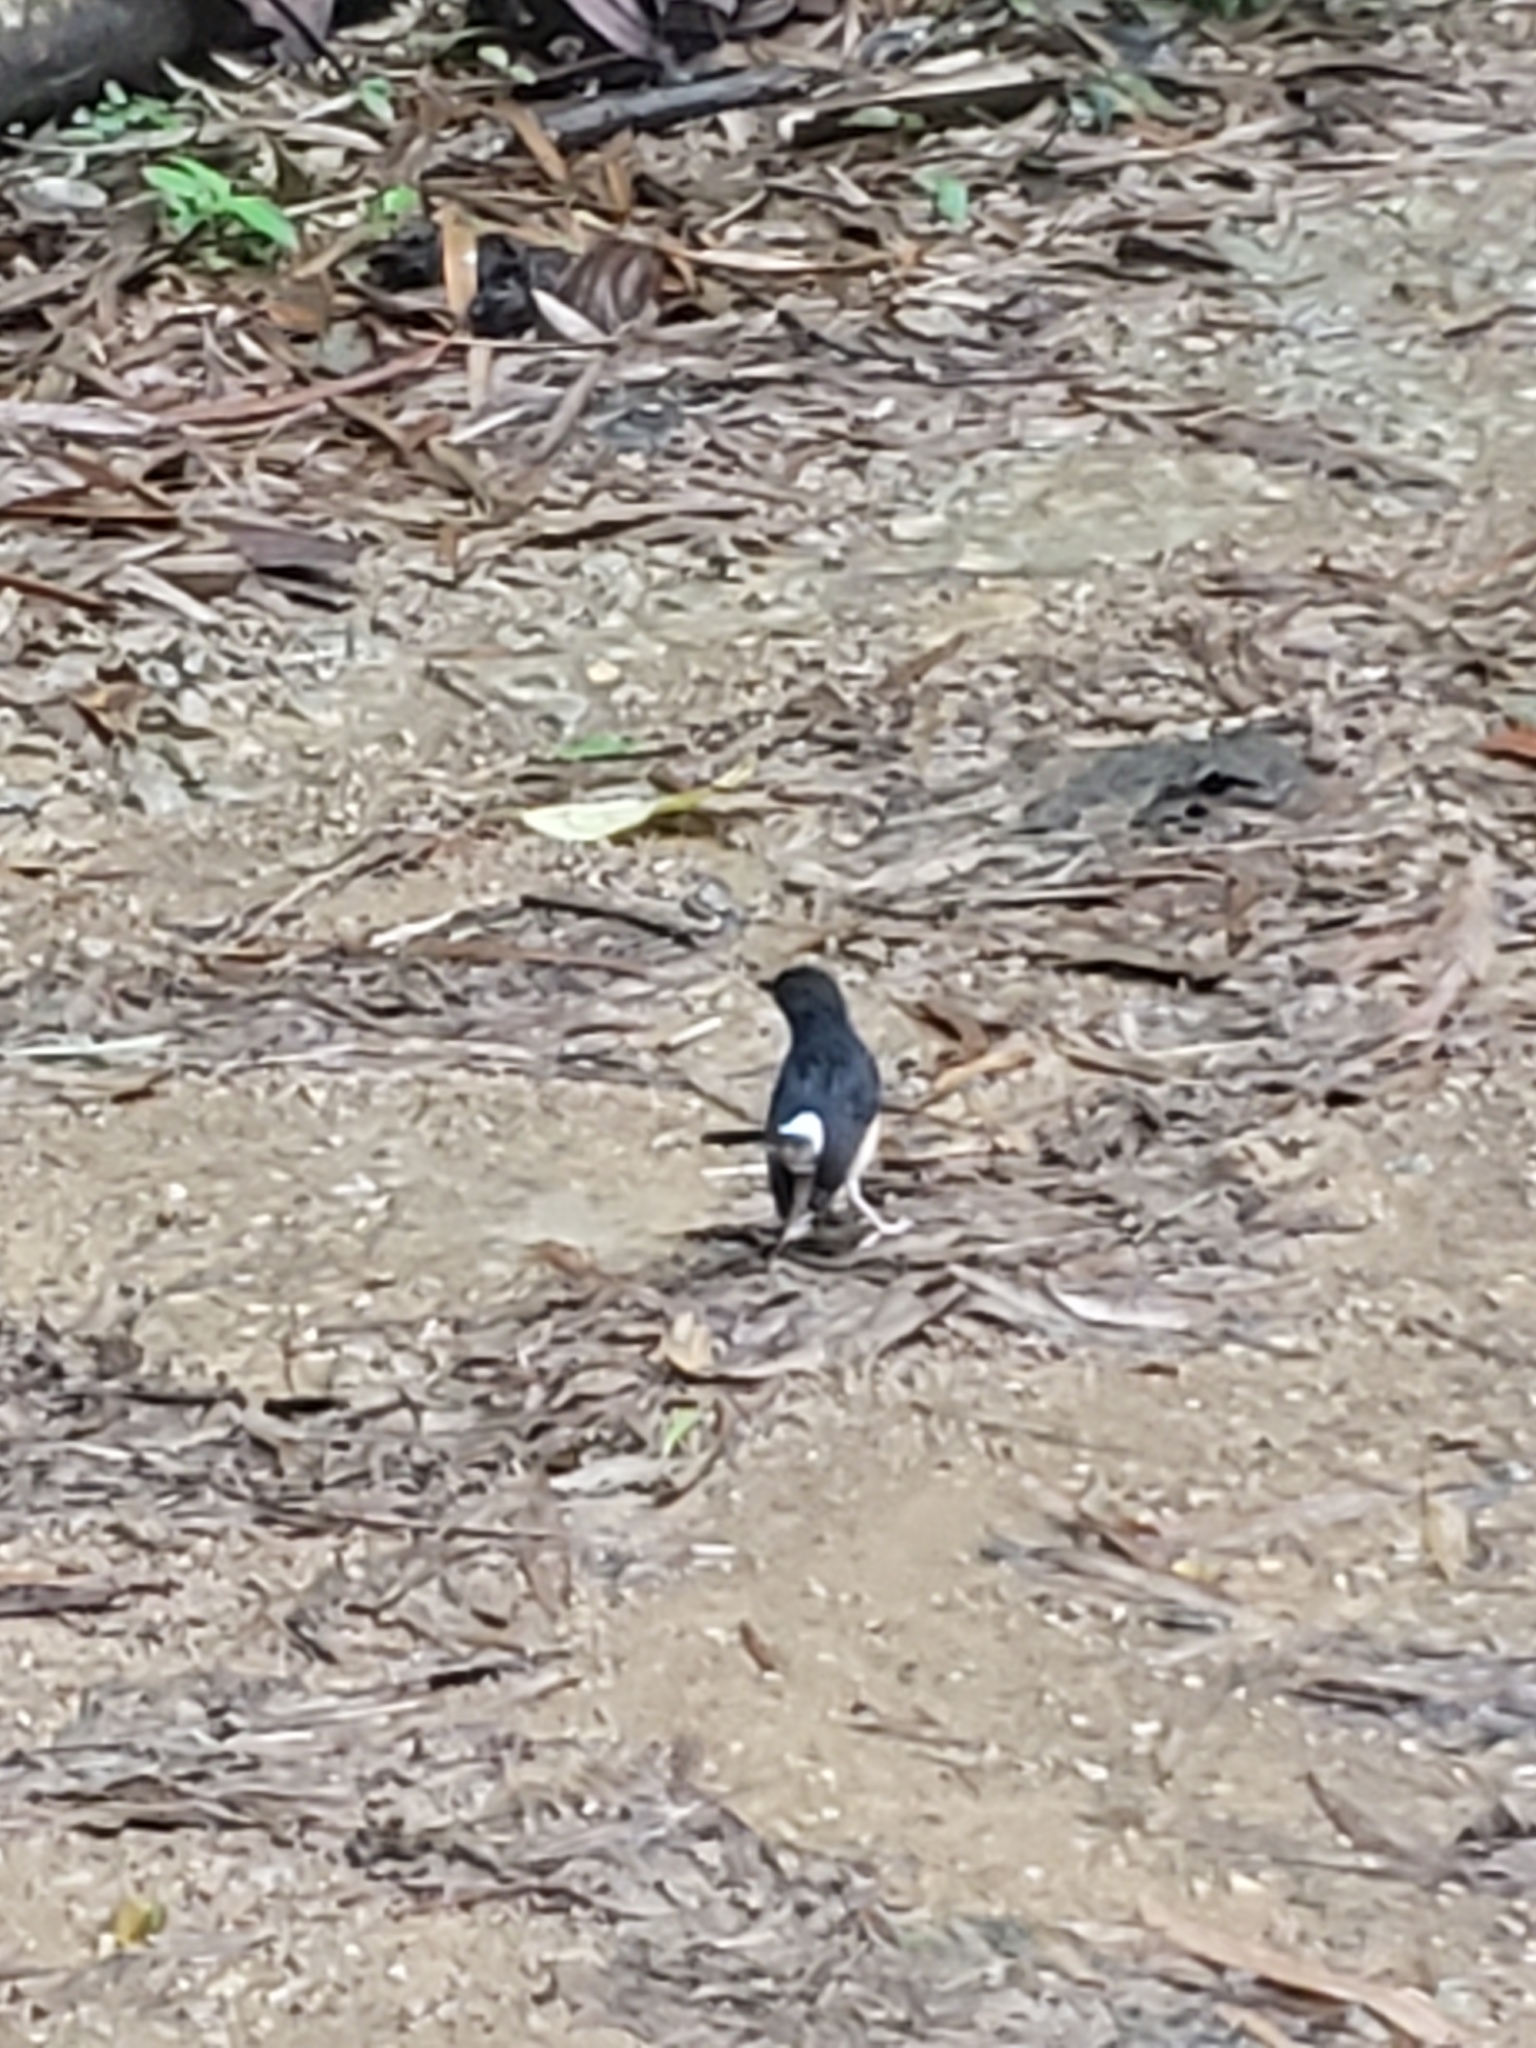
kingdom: Animalia
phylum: Chordata
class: Aves
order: Passeriformes
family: Muscicapidae
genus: Copsychus
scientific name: Copsychus malabaricus
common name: White-rumped shama
